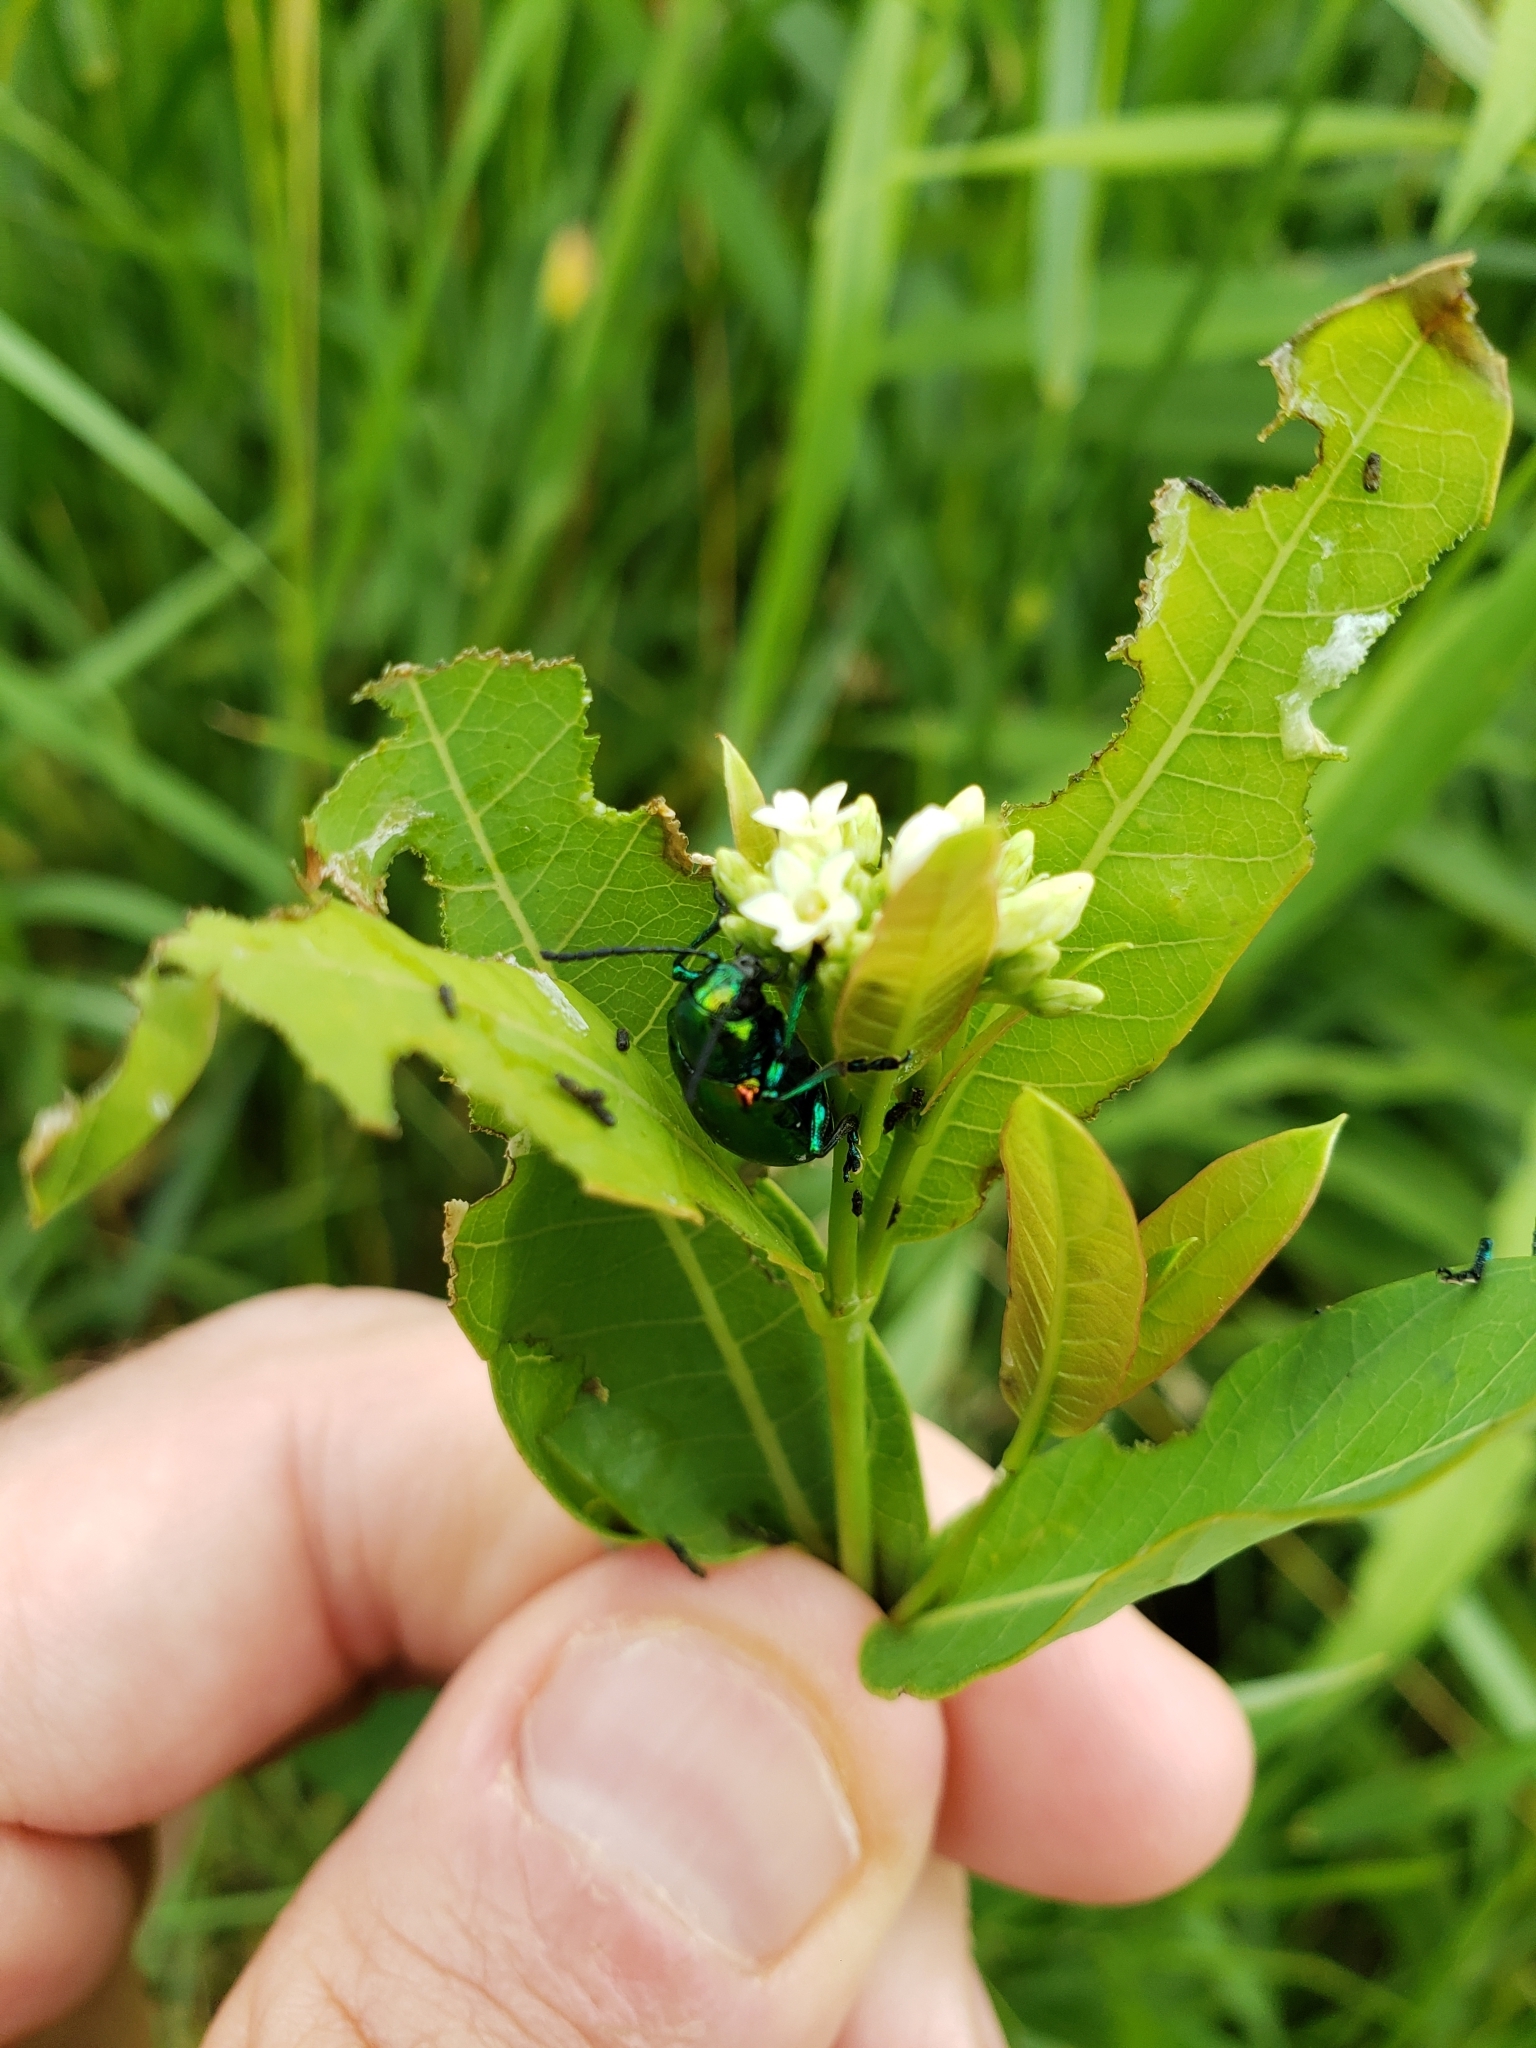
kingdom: Animalia
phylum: Arthropoda
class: Insecta
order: Coleoptera
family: Chrysomelidae
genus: Chrysochus
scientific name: Chrysochus auratus
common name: Dogbane leaf beetle
